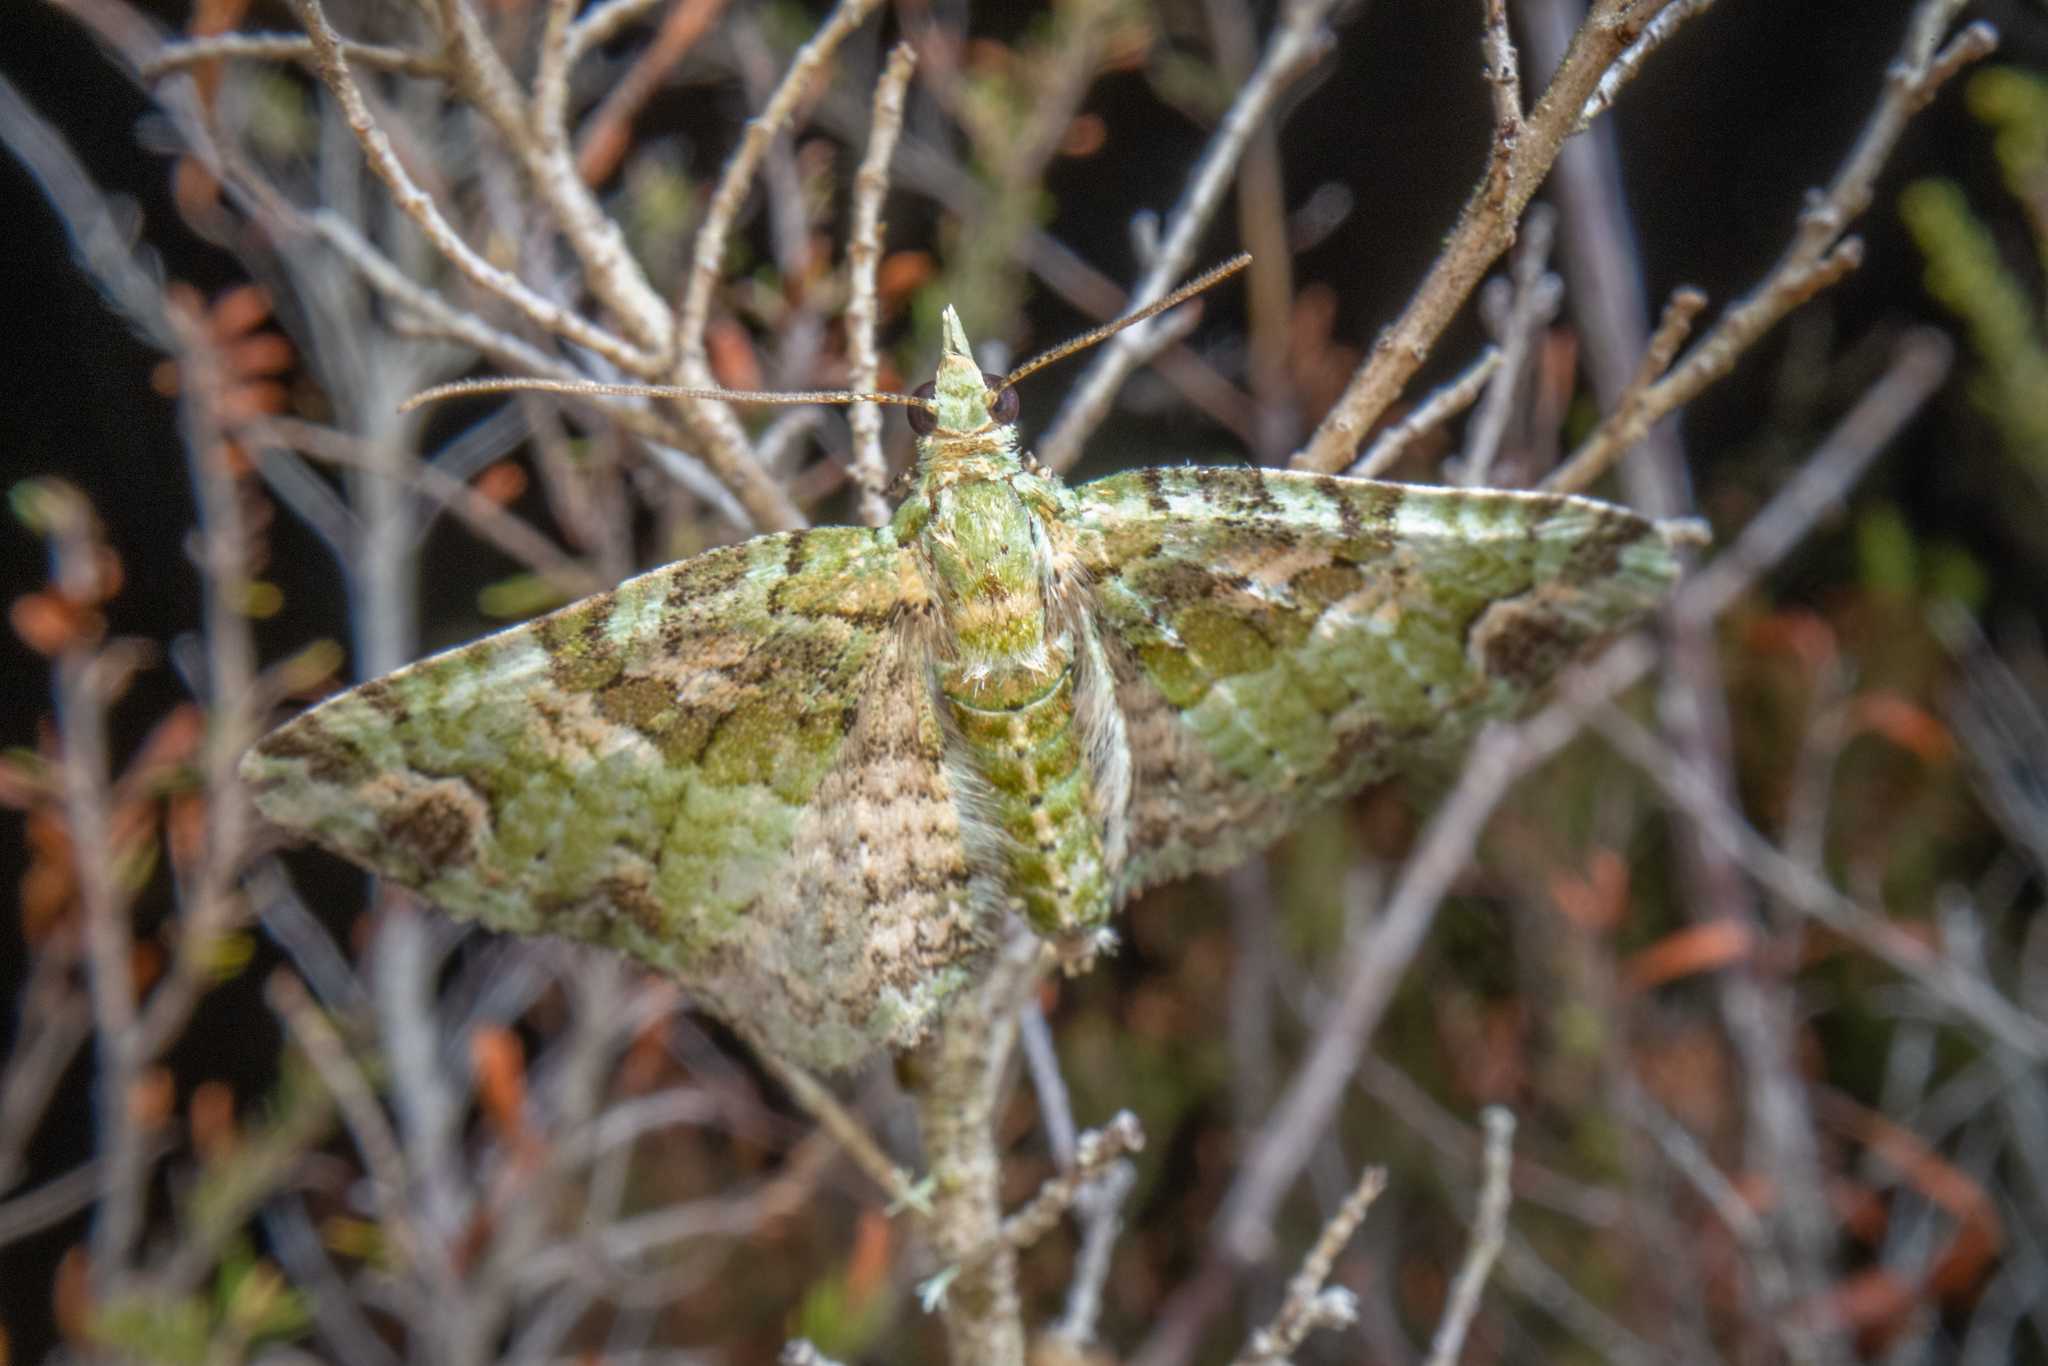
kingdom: Animalia
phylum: Arthropoda
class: Insecta
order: Lepidoptera
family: Geometridae
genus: Pasiphila
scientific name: Pasiphila muscosata
